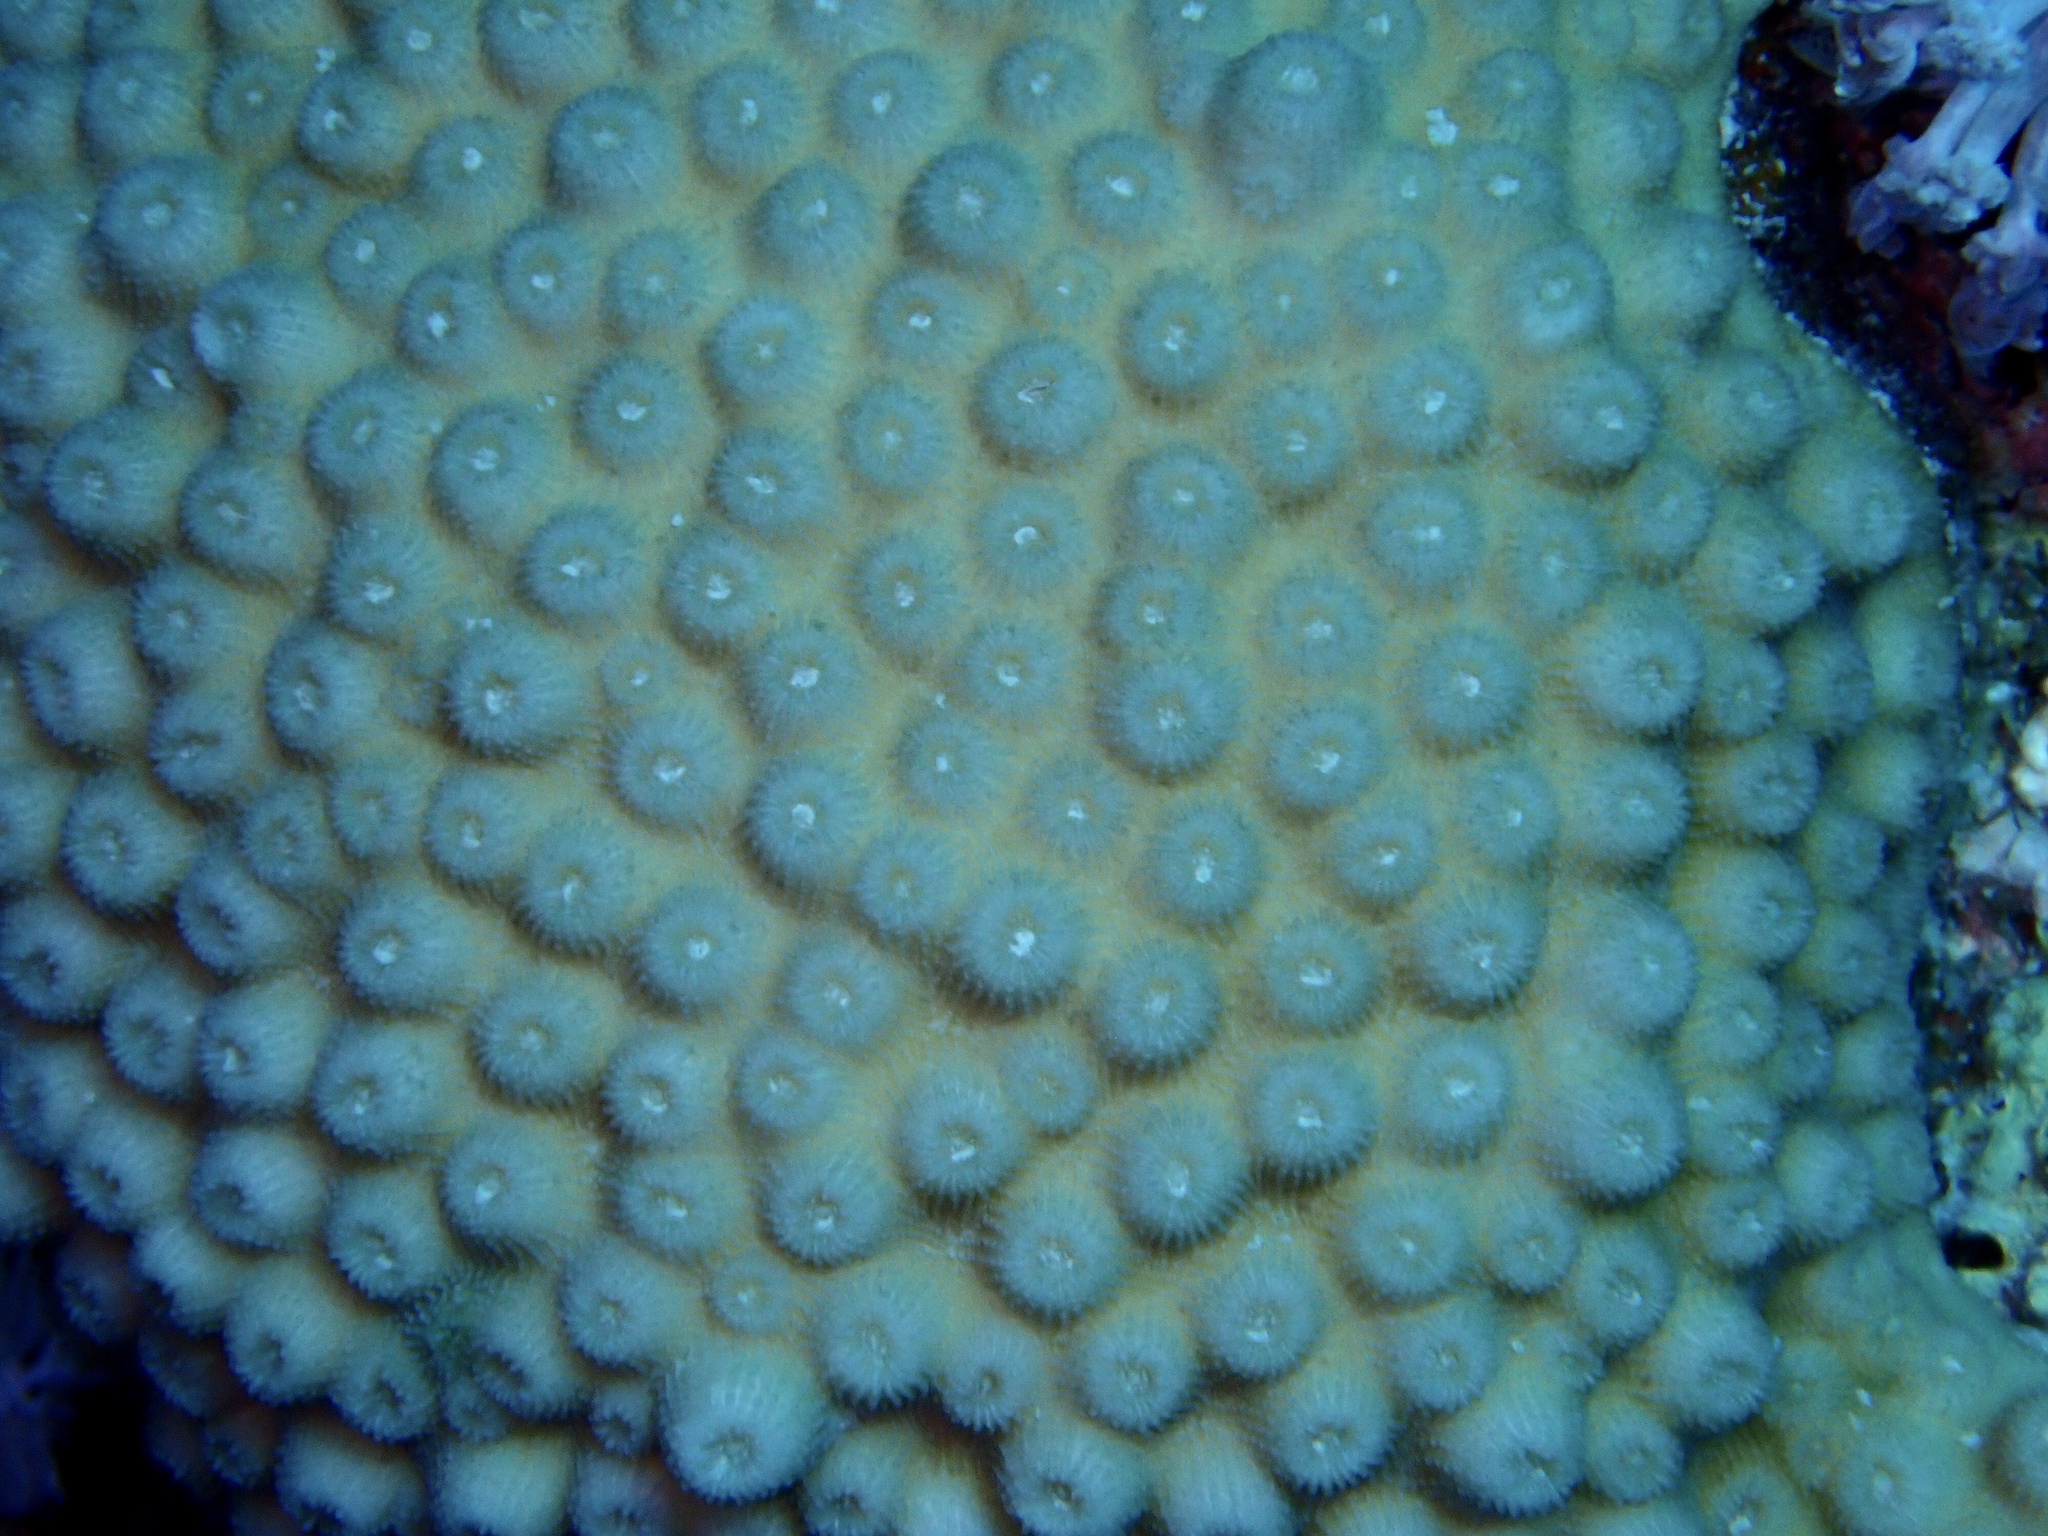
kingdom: Animalia
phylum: Cnidaria
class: Anthozoa
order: Scleractinia
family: Merulinidae
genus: Echinopora
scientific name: Echinopora forskaliana
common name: Hedgehog coral
